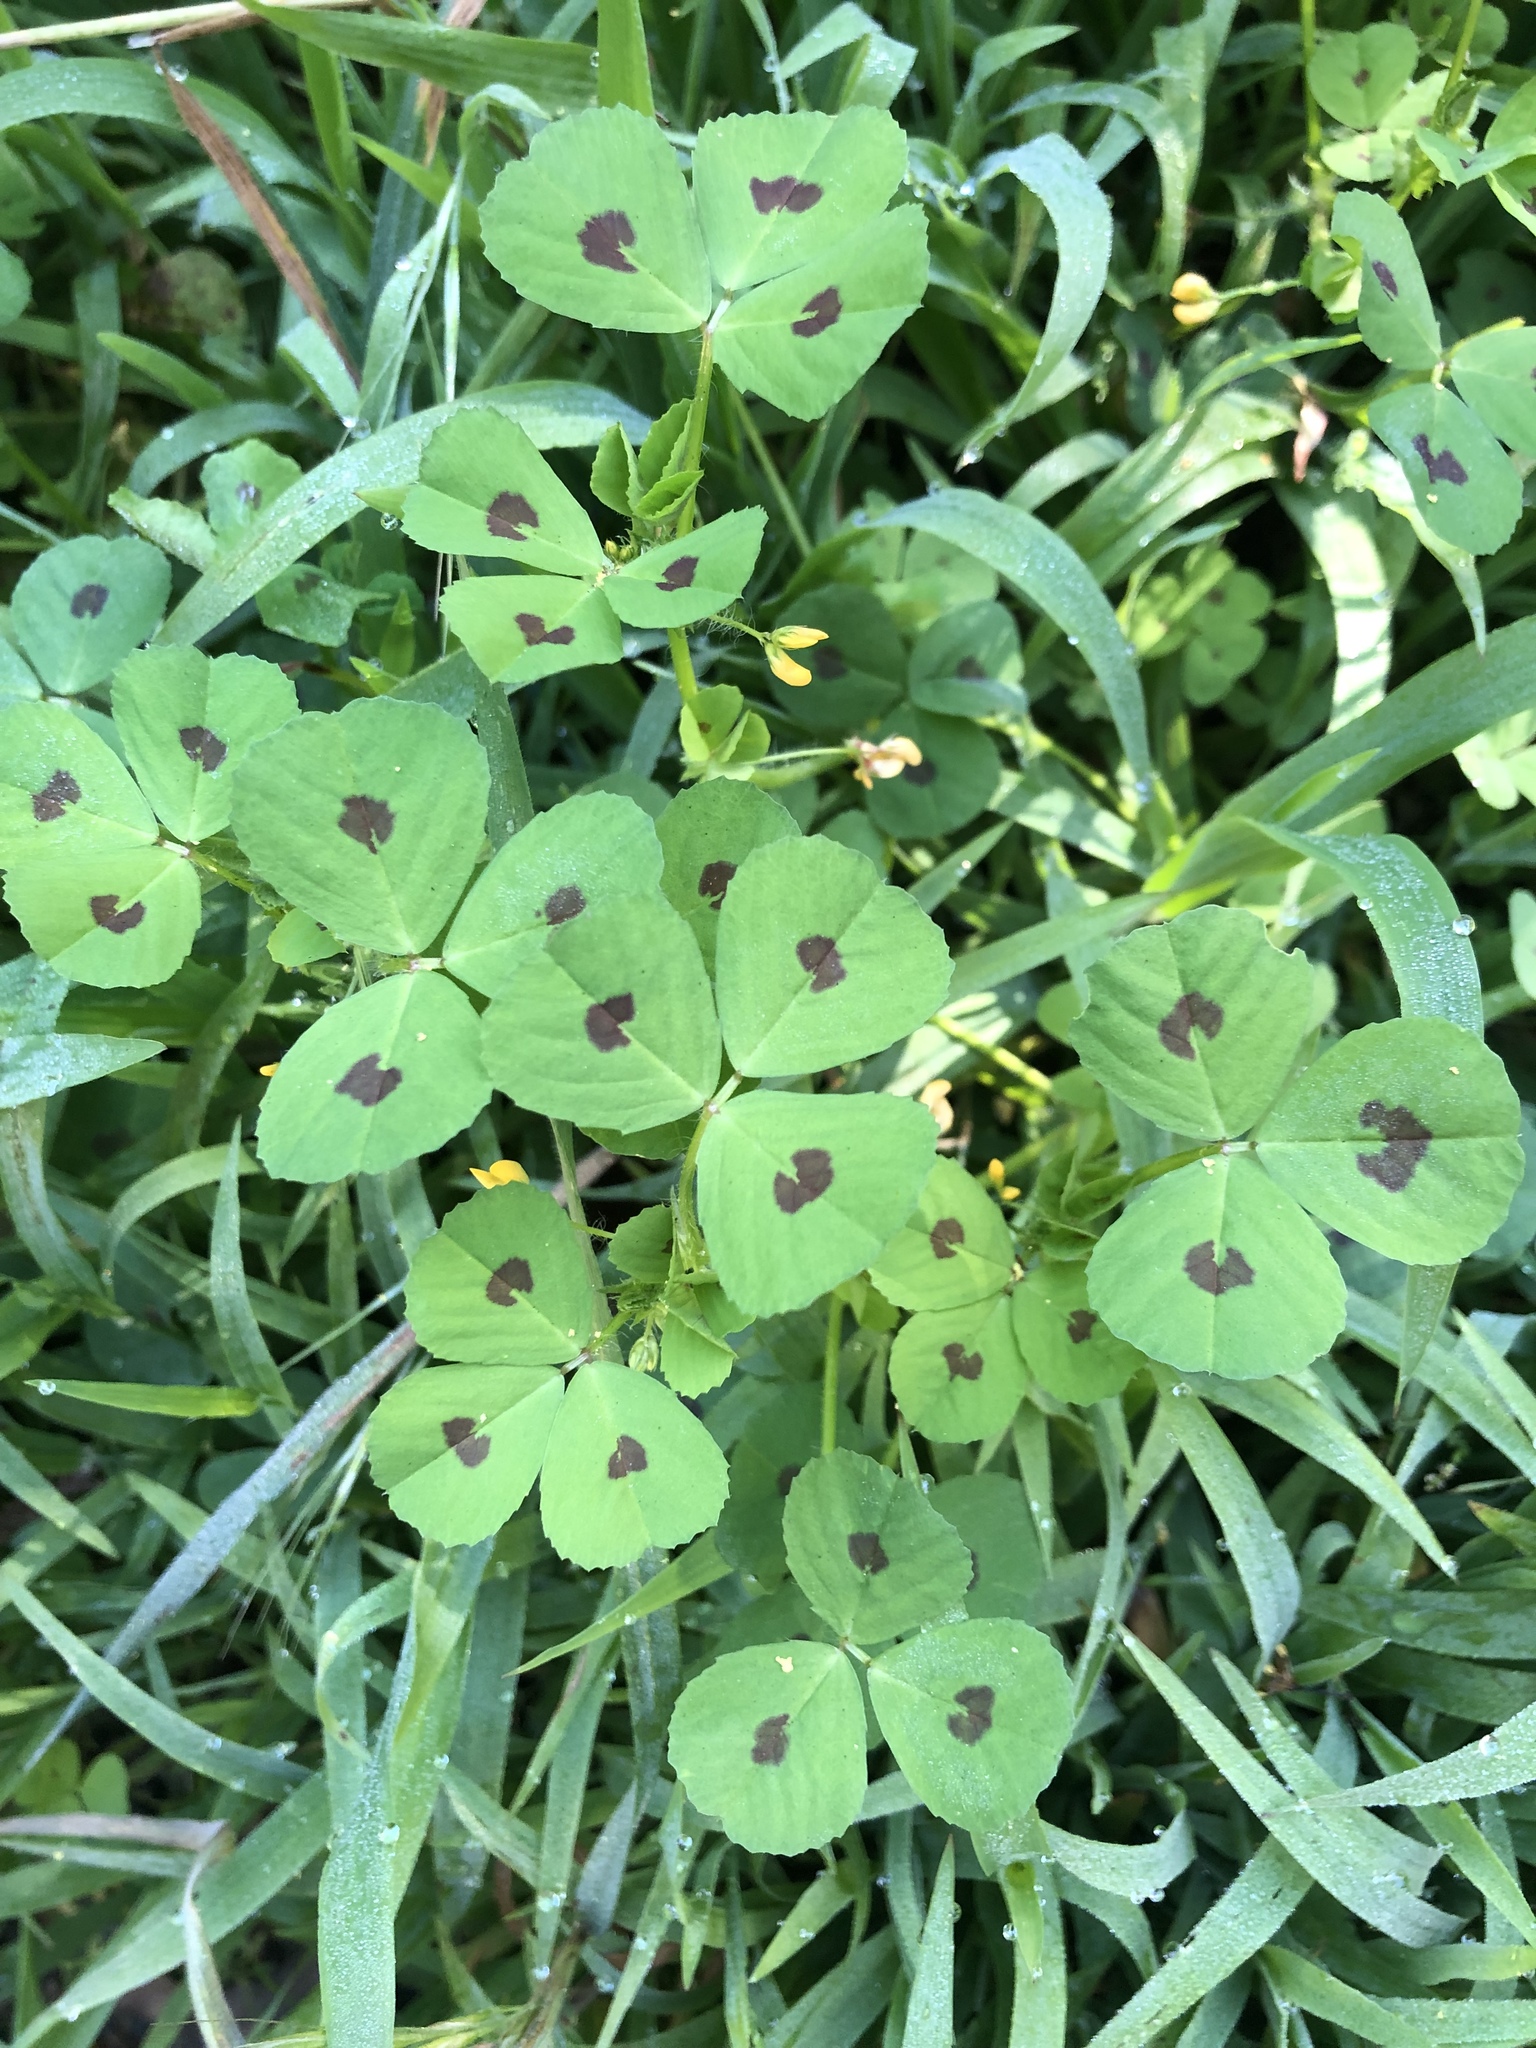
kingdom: Plantae
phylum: Tracheophyta
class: Magnoliopsida
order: Fabales
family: Fabaceae
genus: Medicago
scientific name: Medicago arabica
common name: Spotted medick
